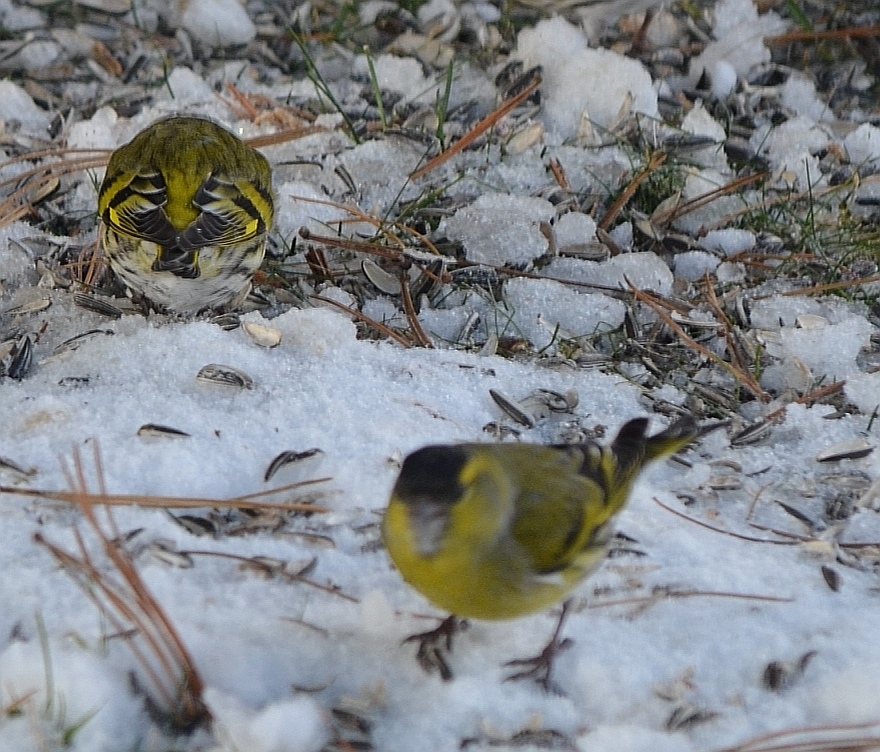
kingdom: Animalia
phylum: Chordata
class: Aves
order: Passeriformes
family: Fringillidae
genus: Spinus
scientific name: Spinus spinus
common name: Eurasian siskin
